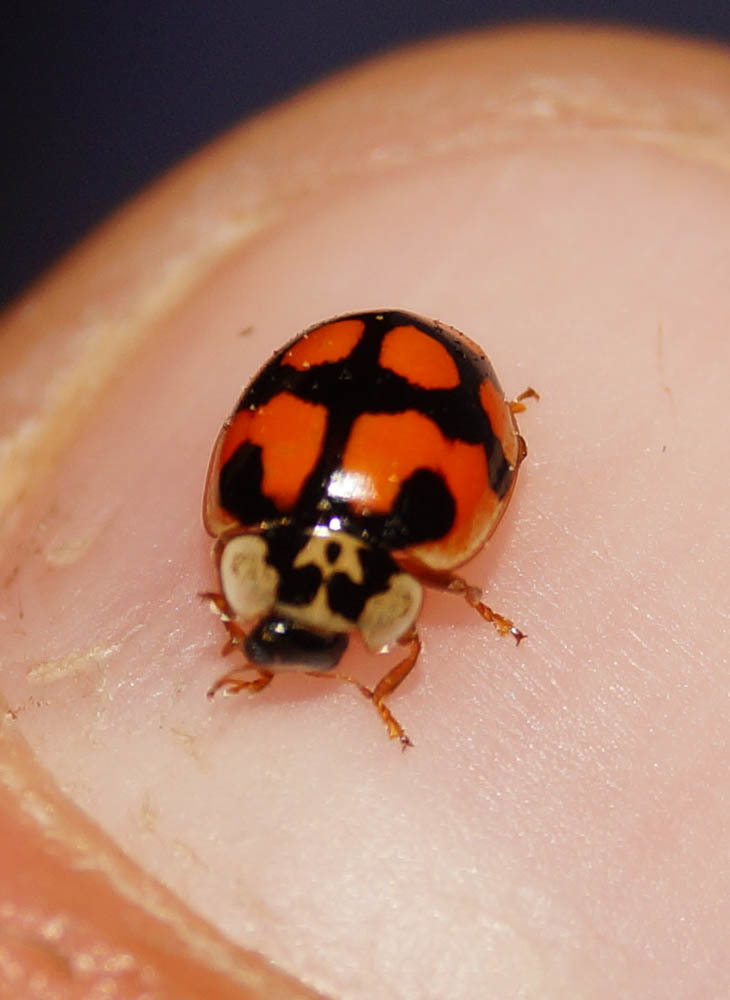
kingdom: Animalia
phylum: Arthropoda
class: Insecta
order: Coleoptera
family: Coccinellidae
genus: Adalia
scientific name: Adalia decempunctata
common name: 10-spot ladybird
